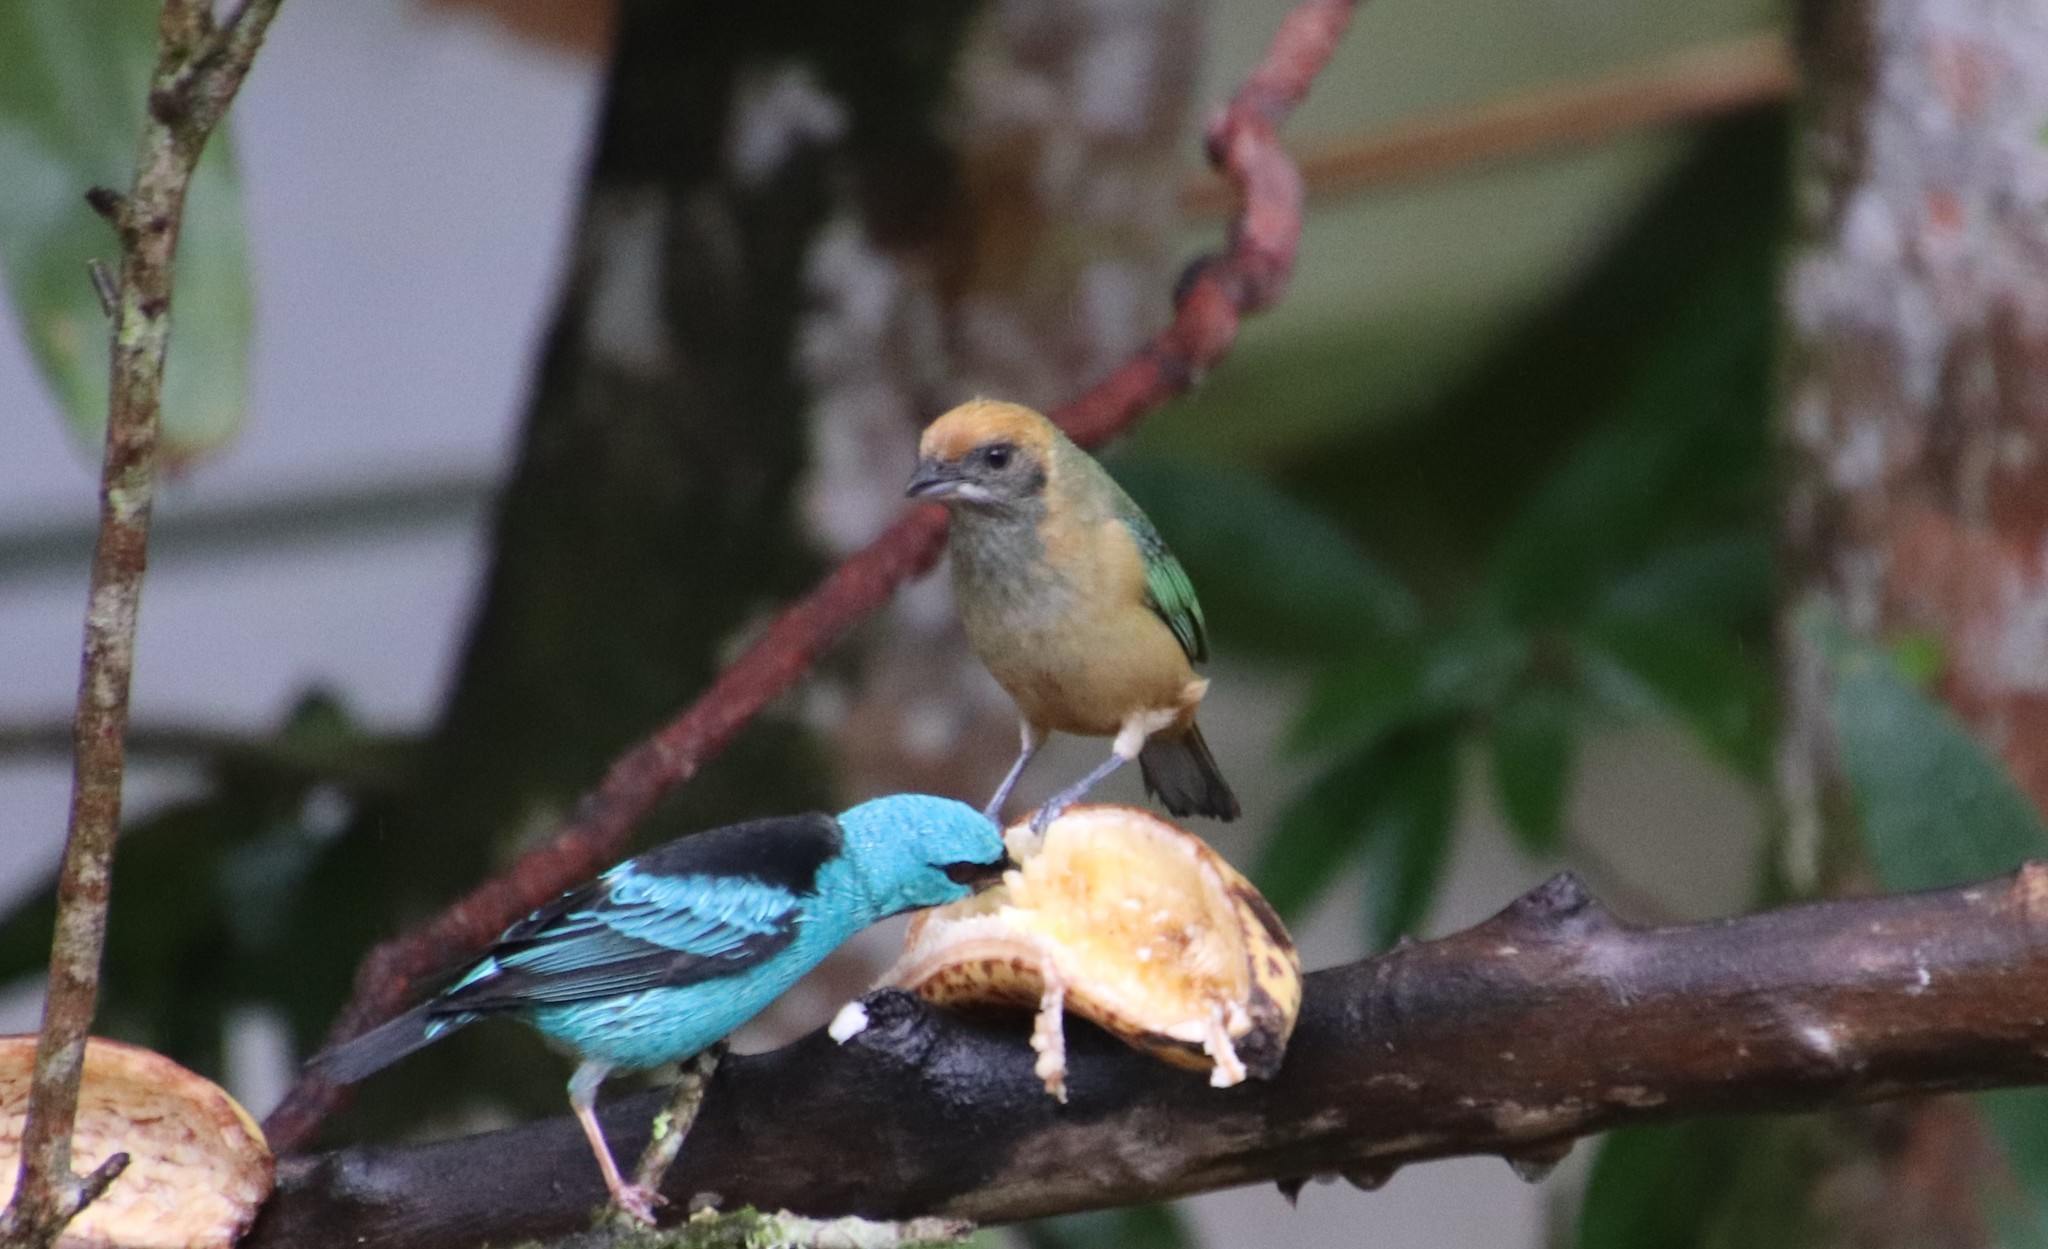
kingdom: Animalia
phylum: Chordata
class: Aves
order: Passeriformes
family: Thraupidae
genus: Stilpnia
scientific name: Stilpnia cayana
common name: Burnished-buff tanager
